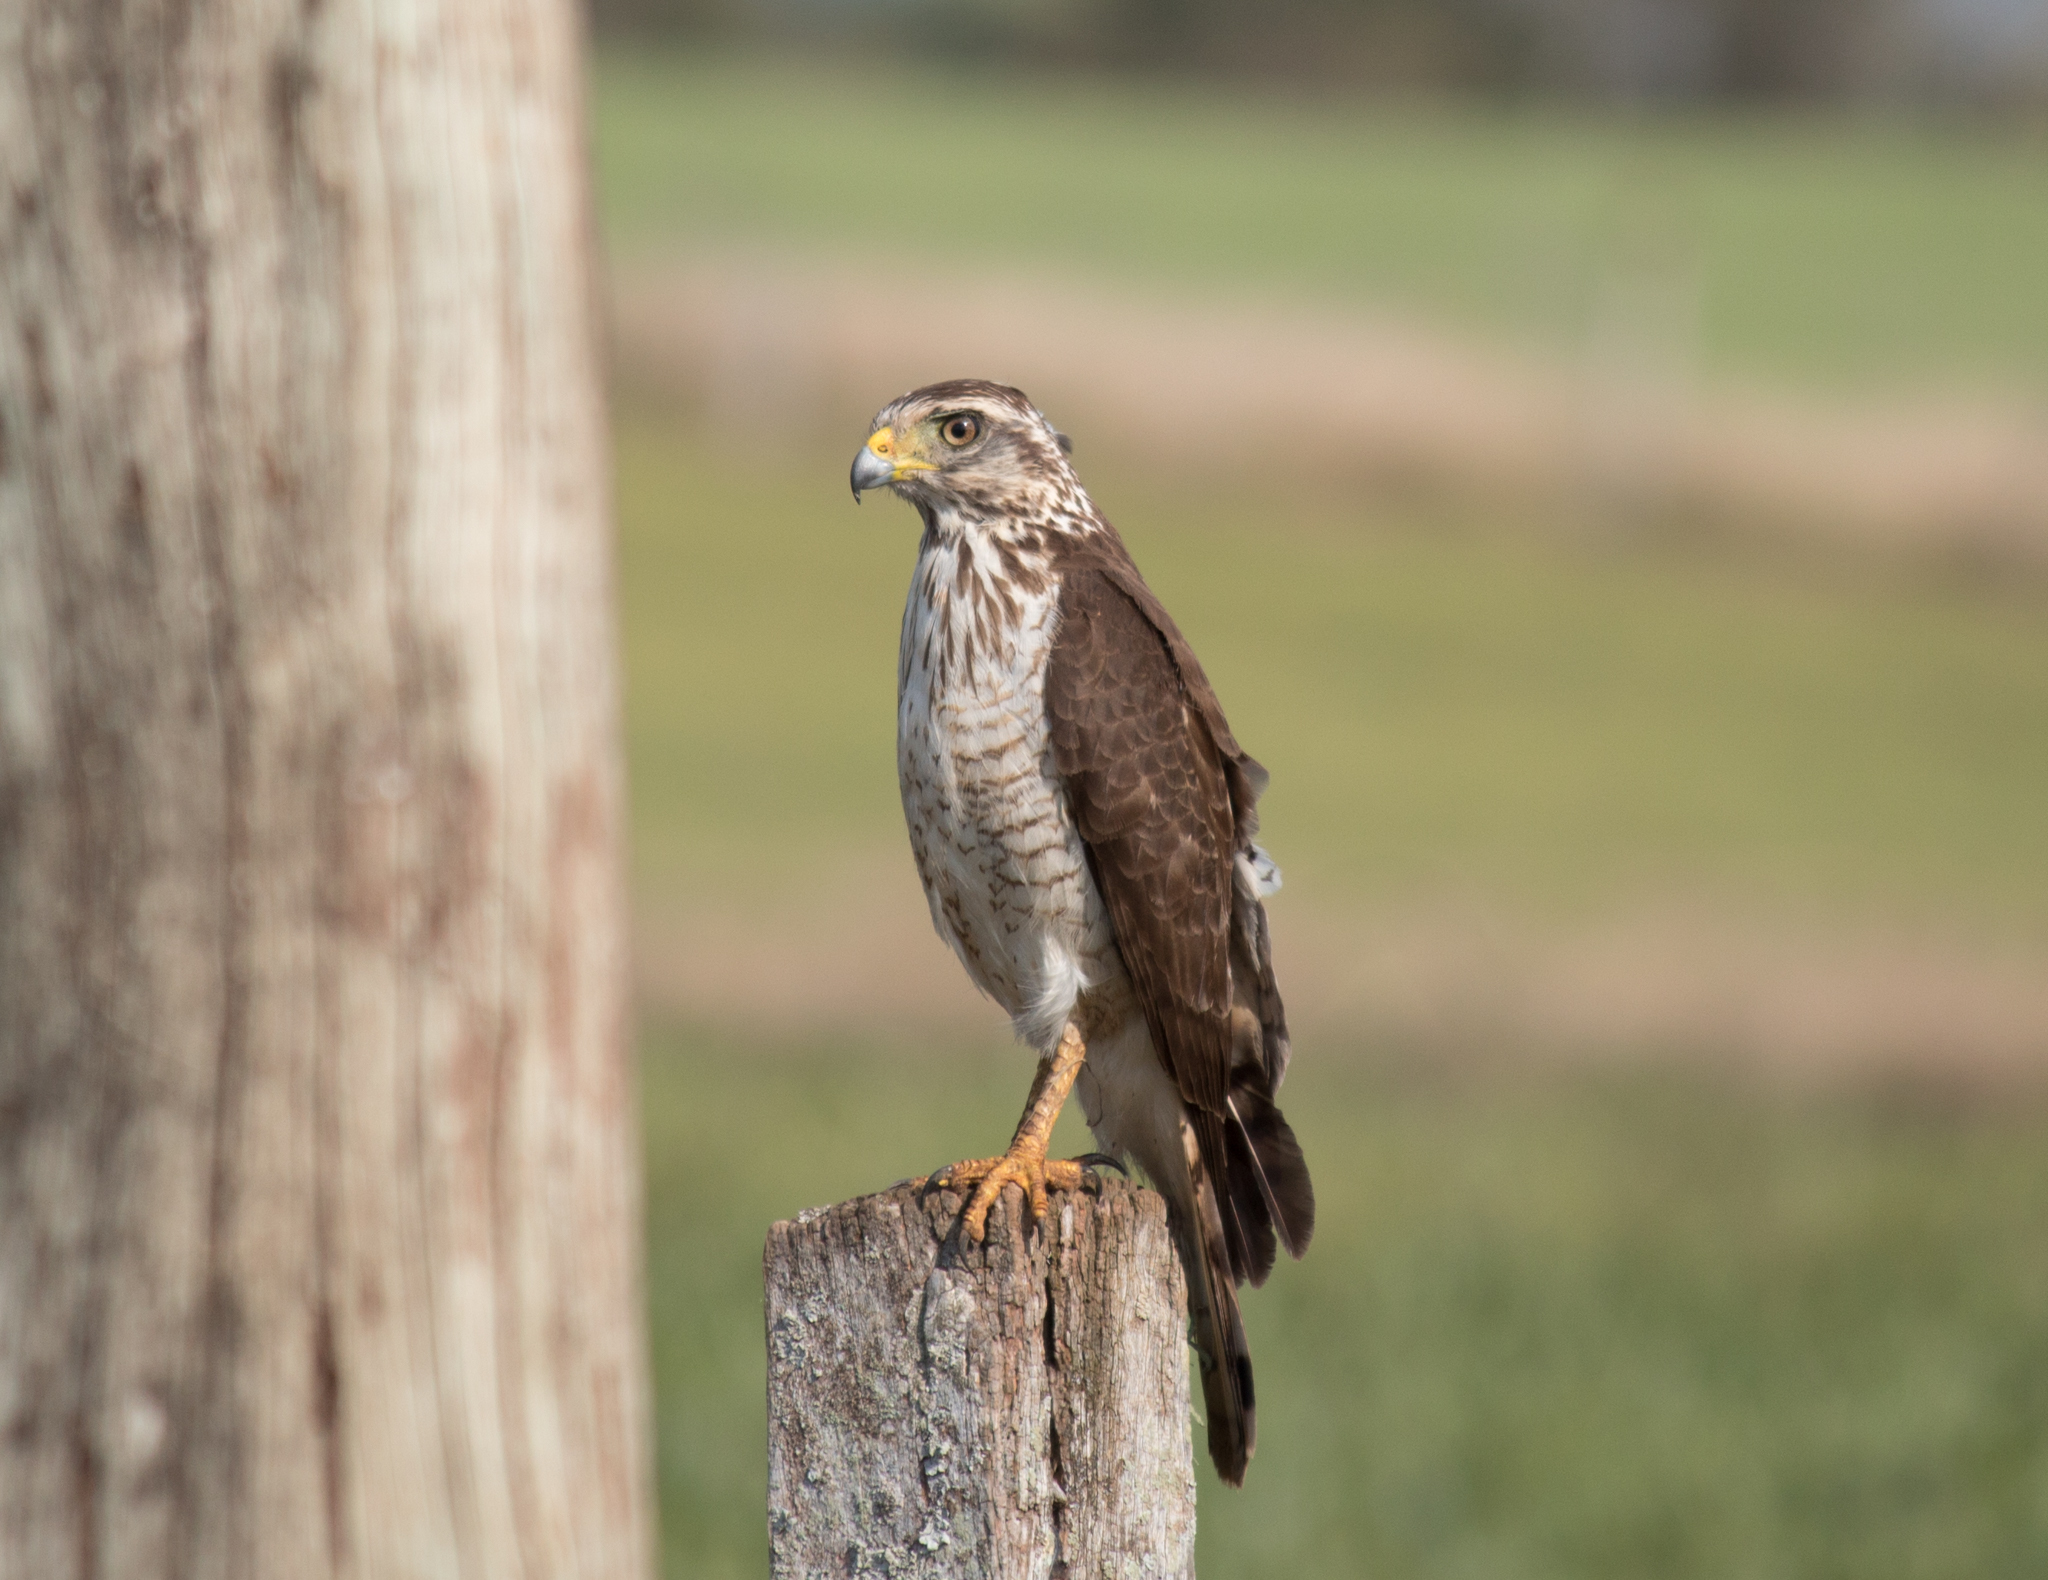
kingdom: Animalia
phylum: Chordata
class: Aves
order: Accipitriformes
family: Accipitridae
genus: Rupornis
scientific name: Rupornis magnirostris
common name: Roadside hawk
